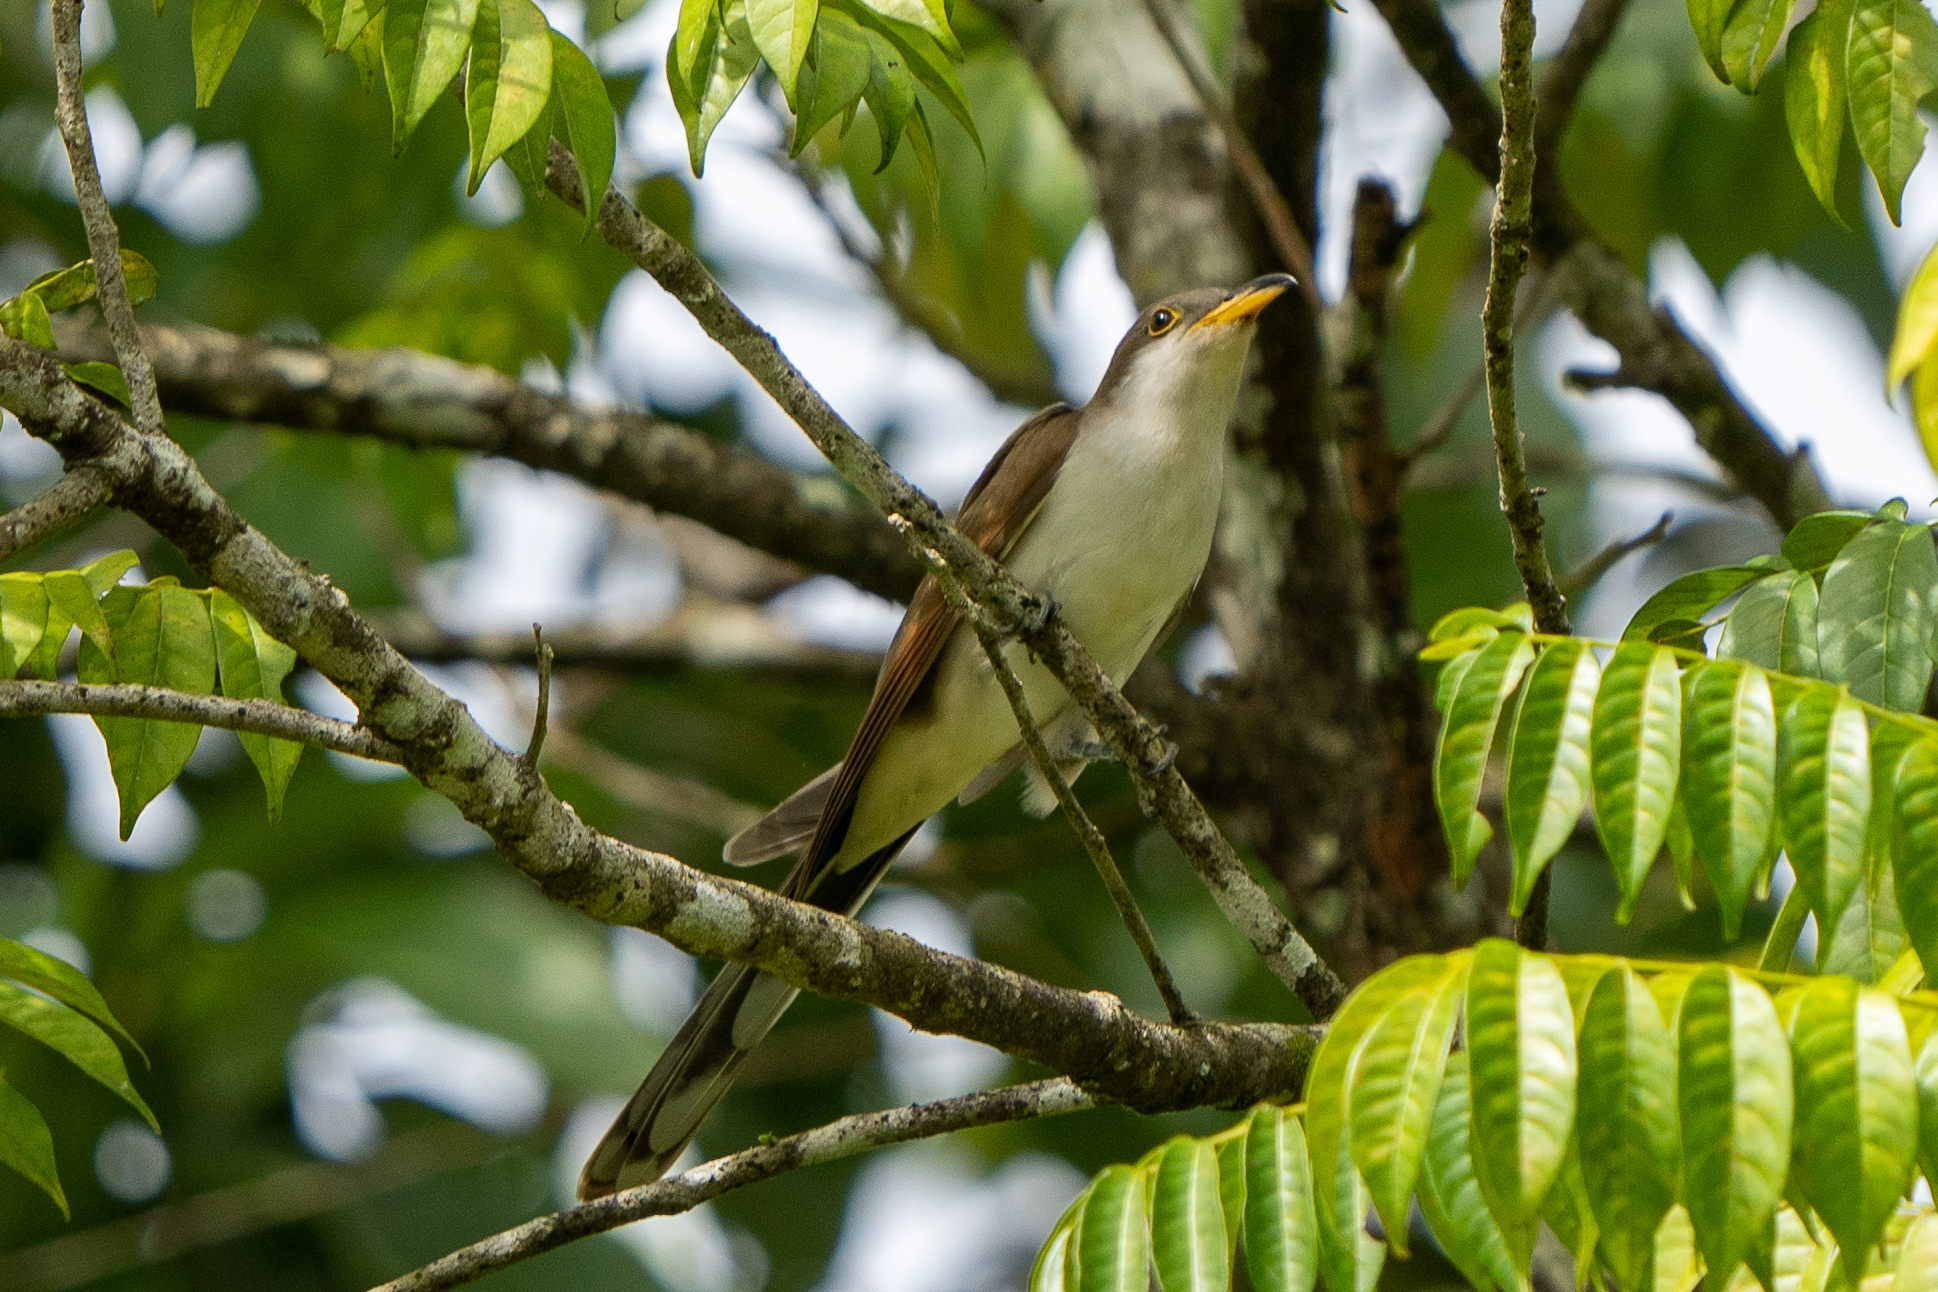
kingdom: Animalia
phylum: Chordata
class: Aves
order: Cuculiformes
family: Cuculidae
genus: Coccyzus
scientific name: Coccyzus americanus
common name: Yellow-billed cuckoo
